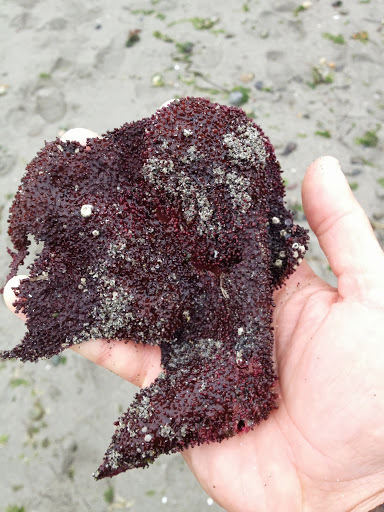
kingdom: Plantae
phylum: Rhodophyta
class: Florideophyceae
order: Gigartinales
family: Gigartinaceae
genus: Chondracanthus
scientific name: Chondracanthus exasperatus
